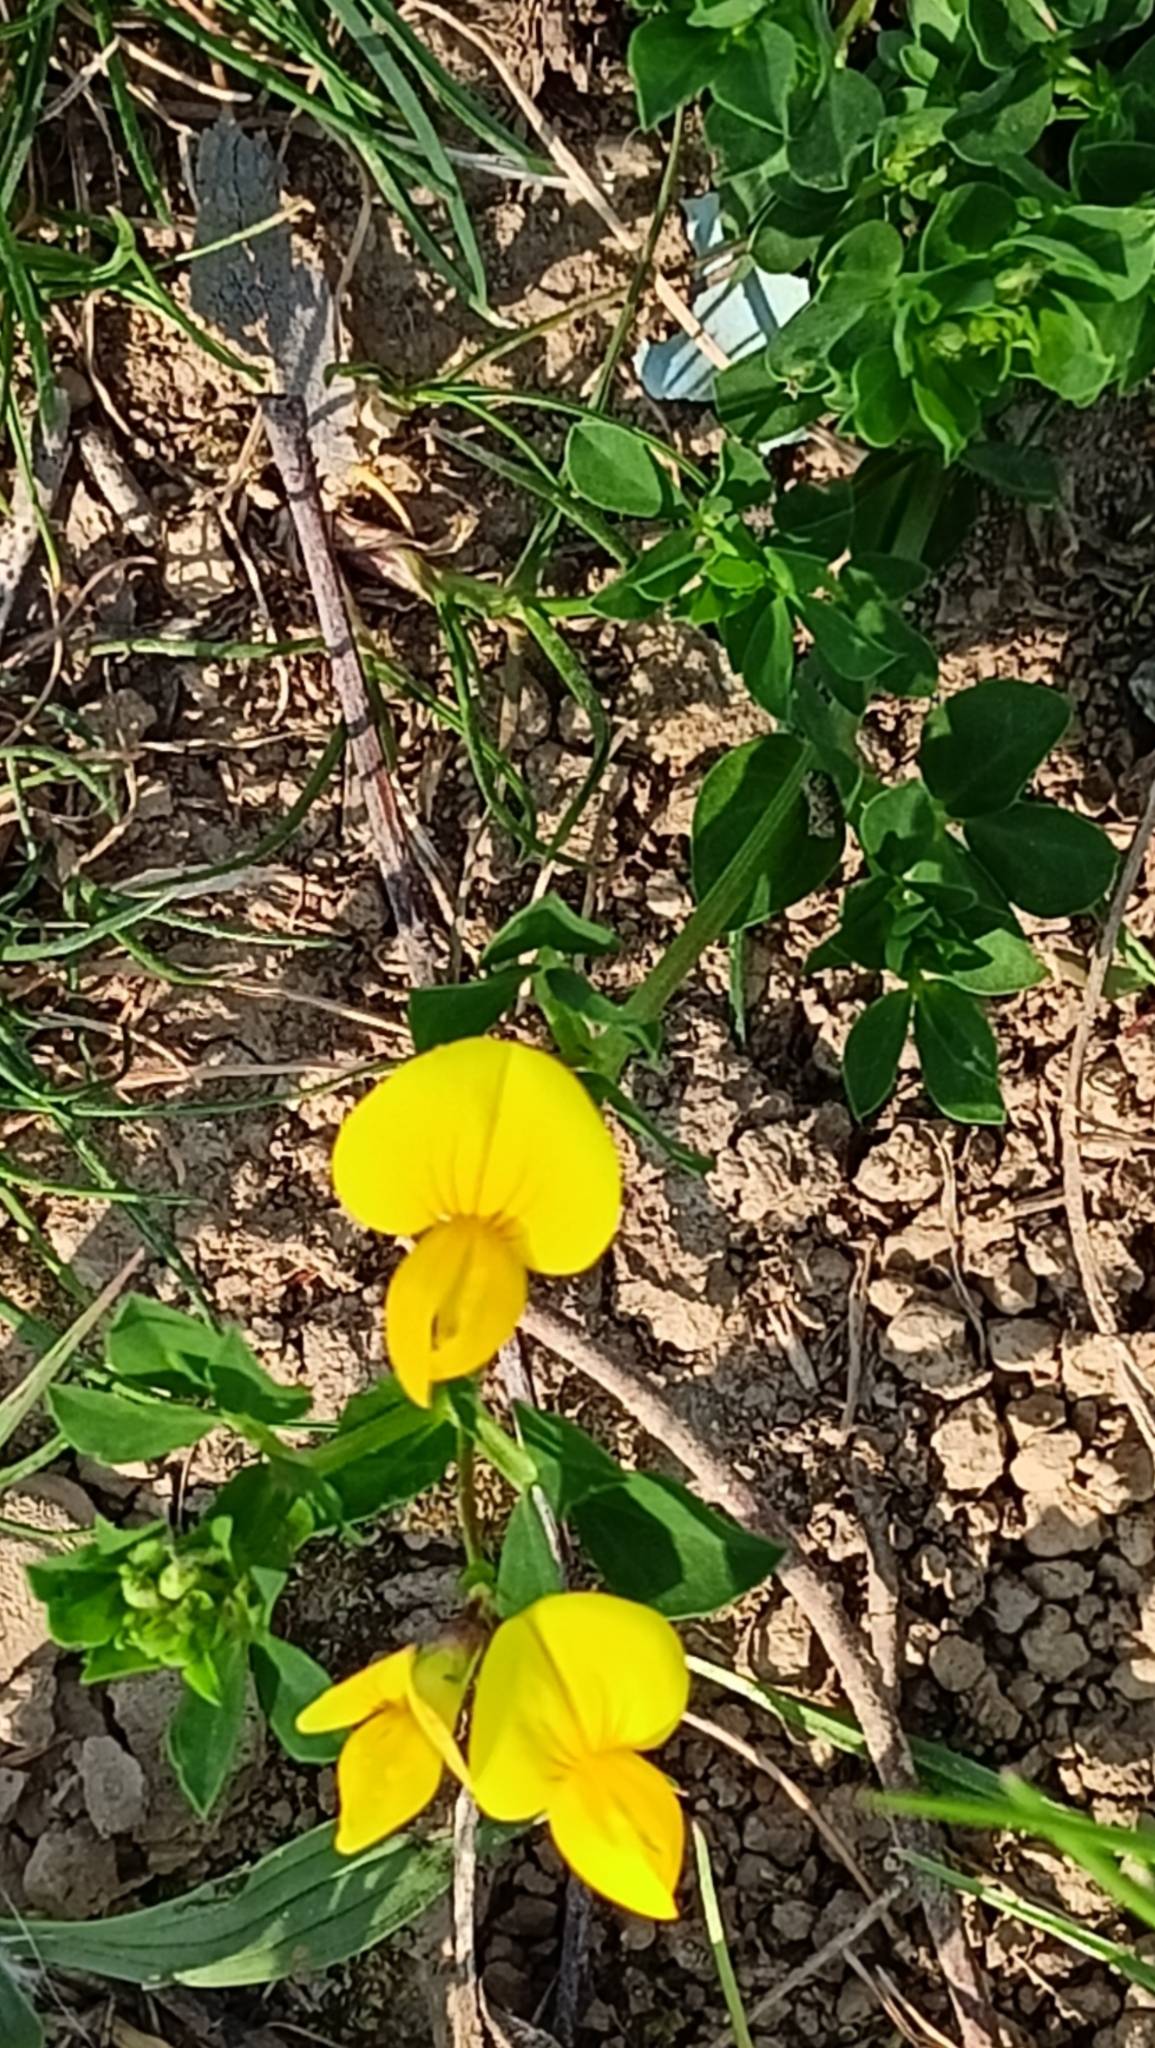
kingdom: Plantae
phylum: Tracheophyta
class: Magnoliopsida
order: Fabales
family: Fabaceae
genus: Lotus
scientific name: Lotus corniculatus
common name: Common bird's-foot-trefoil
